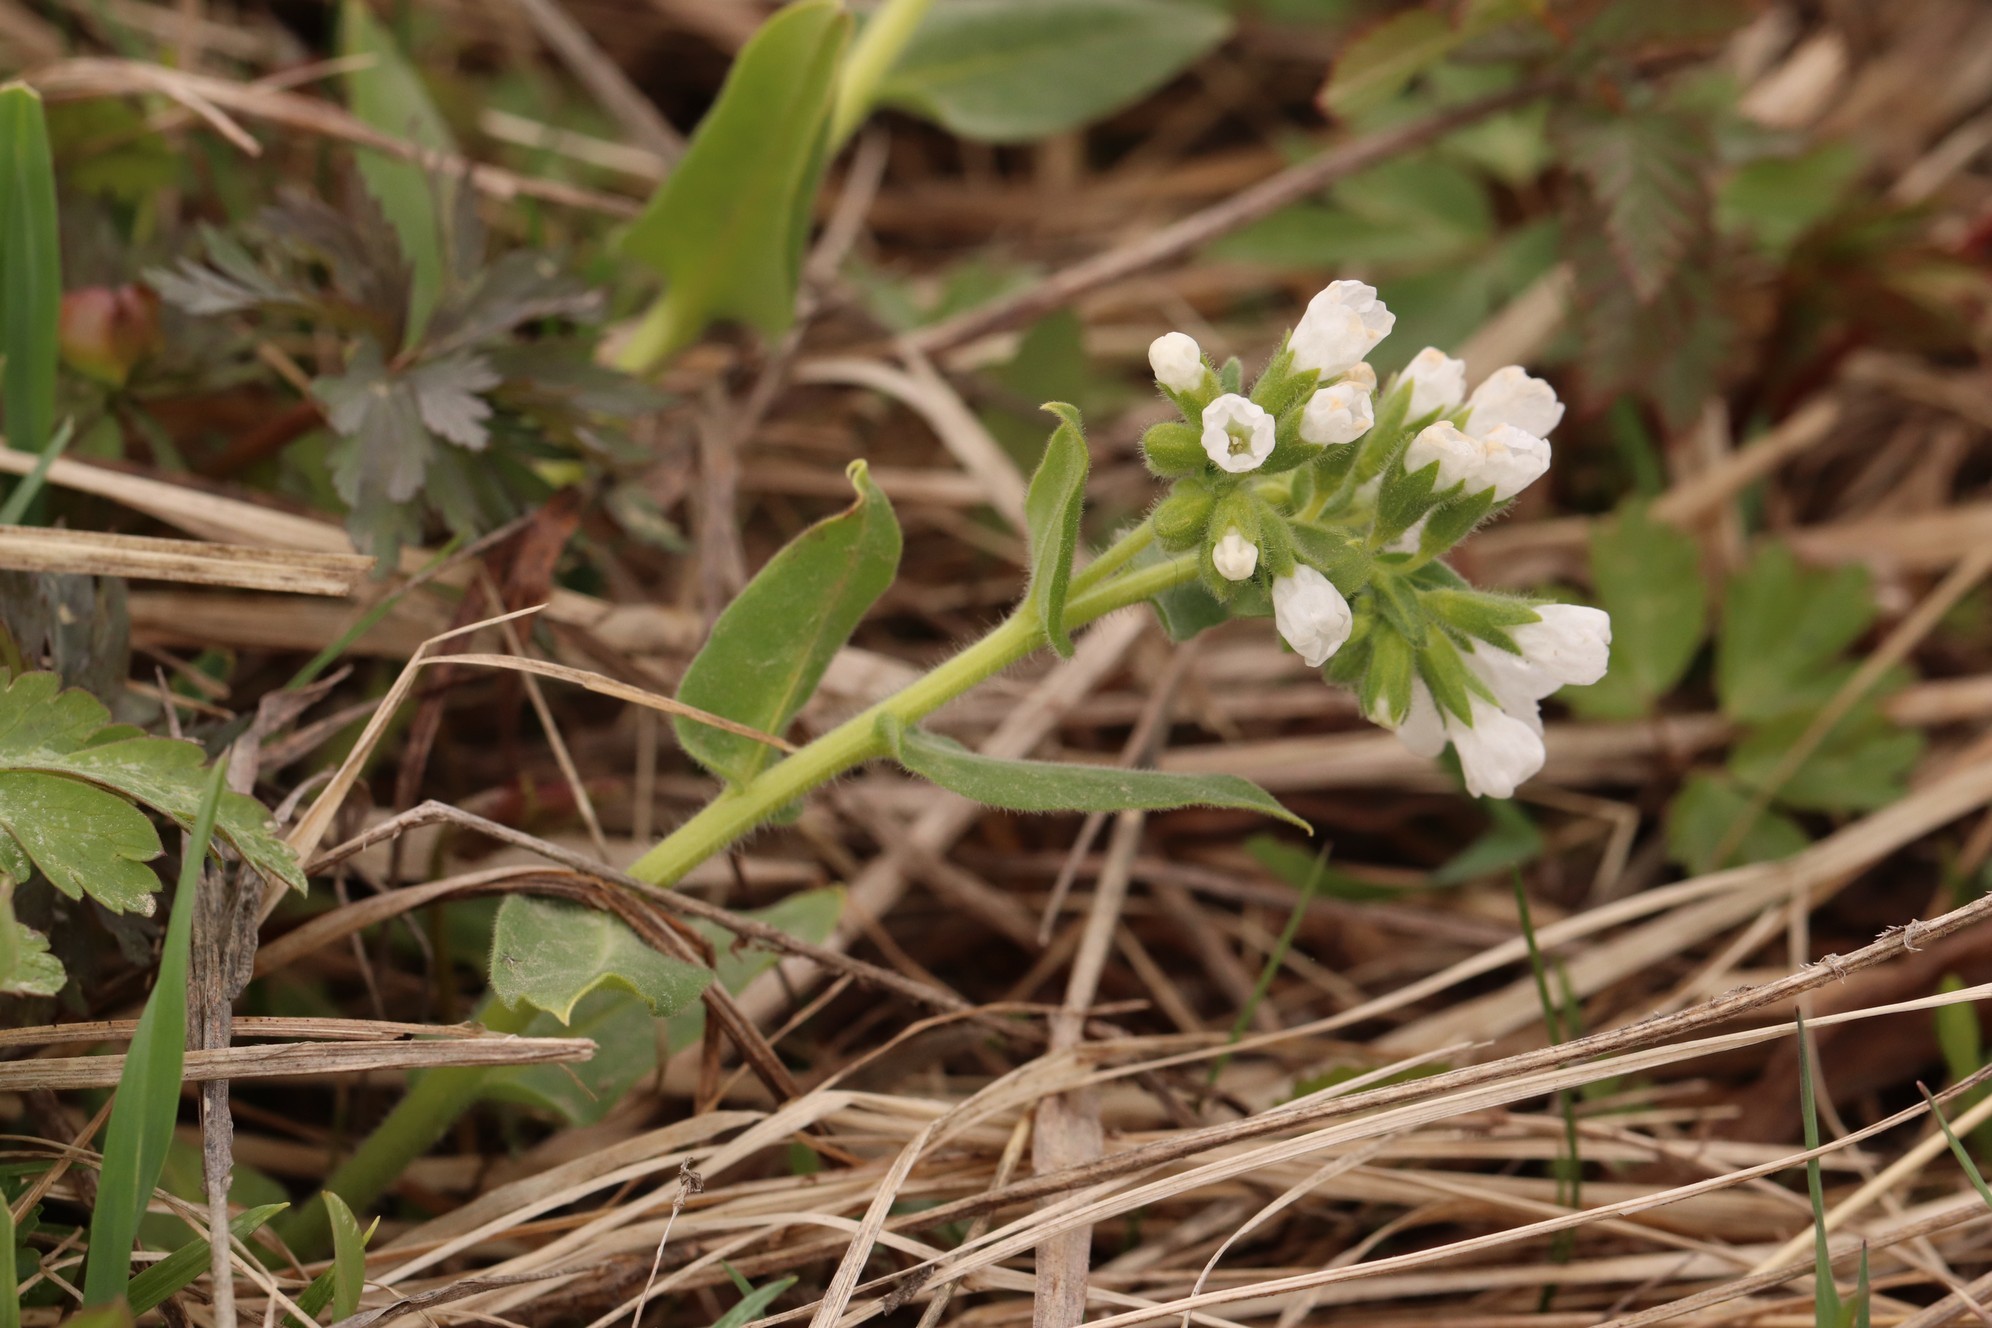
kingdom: Plantae
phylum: Tracheophyta
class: Magnoliopsida
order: Boraginales
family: Boraginaceae
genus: Pulmonaria
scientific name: Pulmonaria mollis
